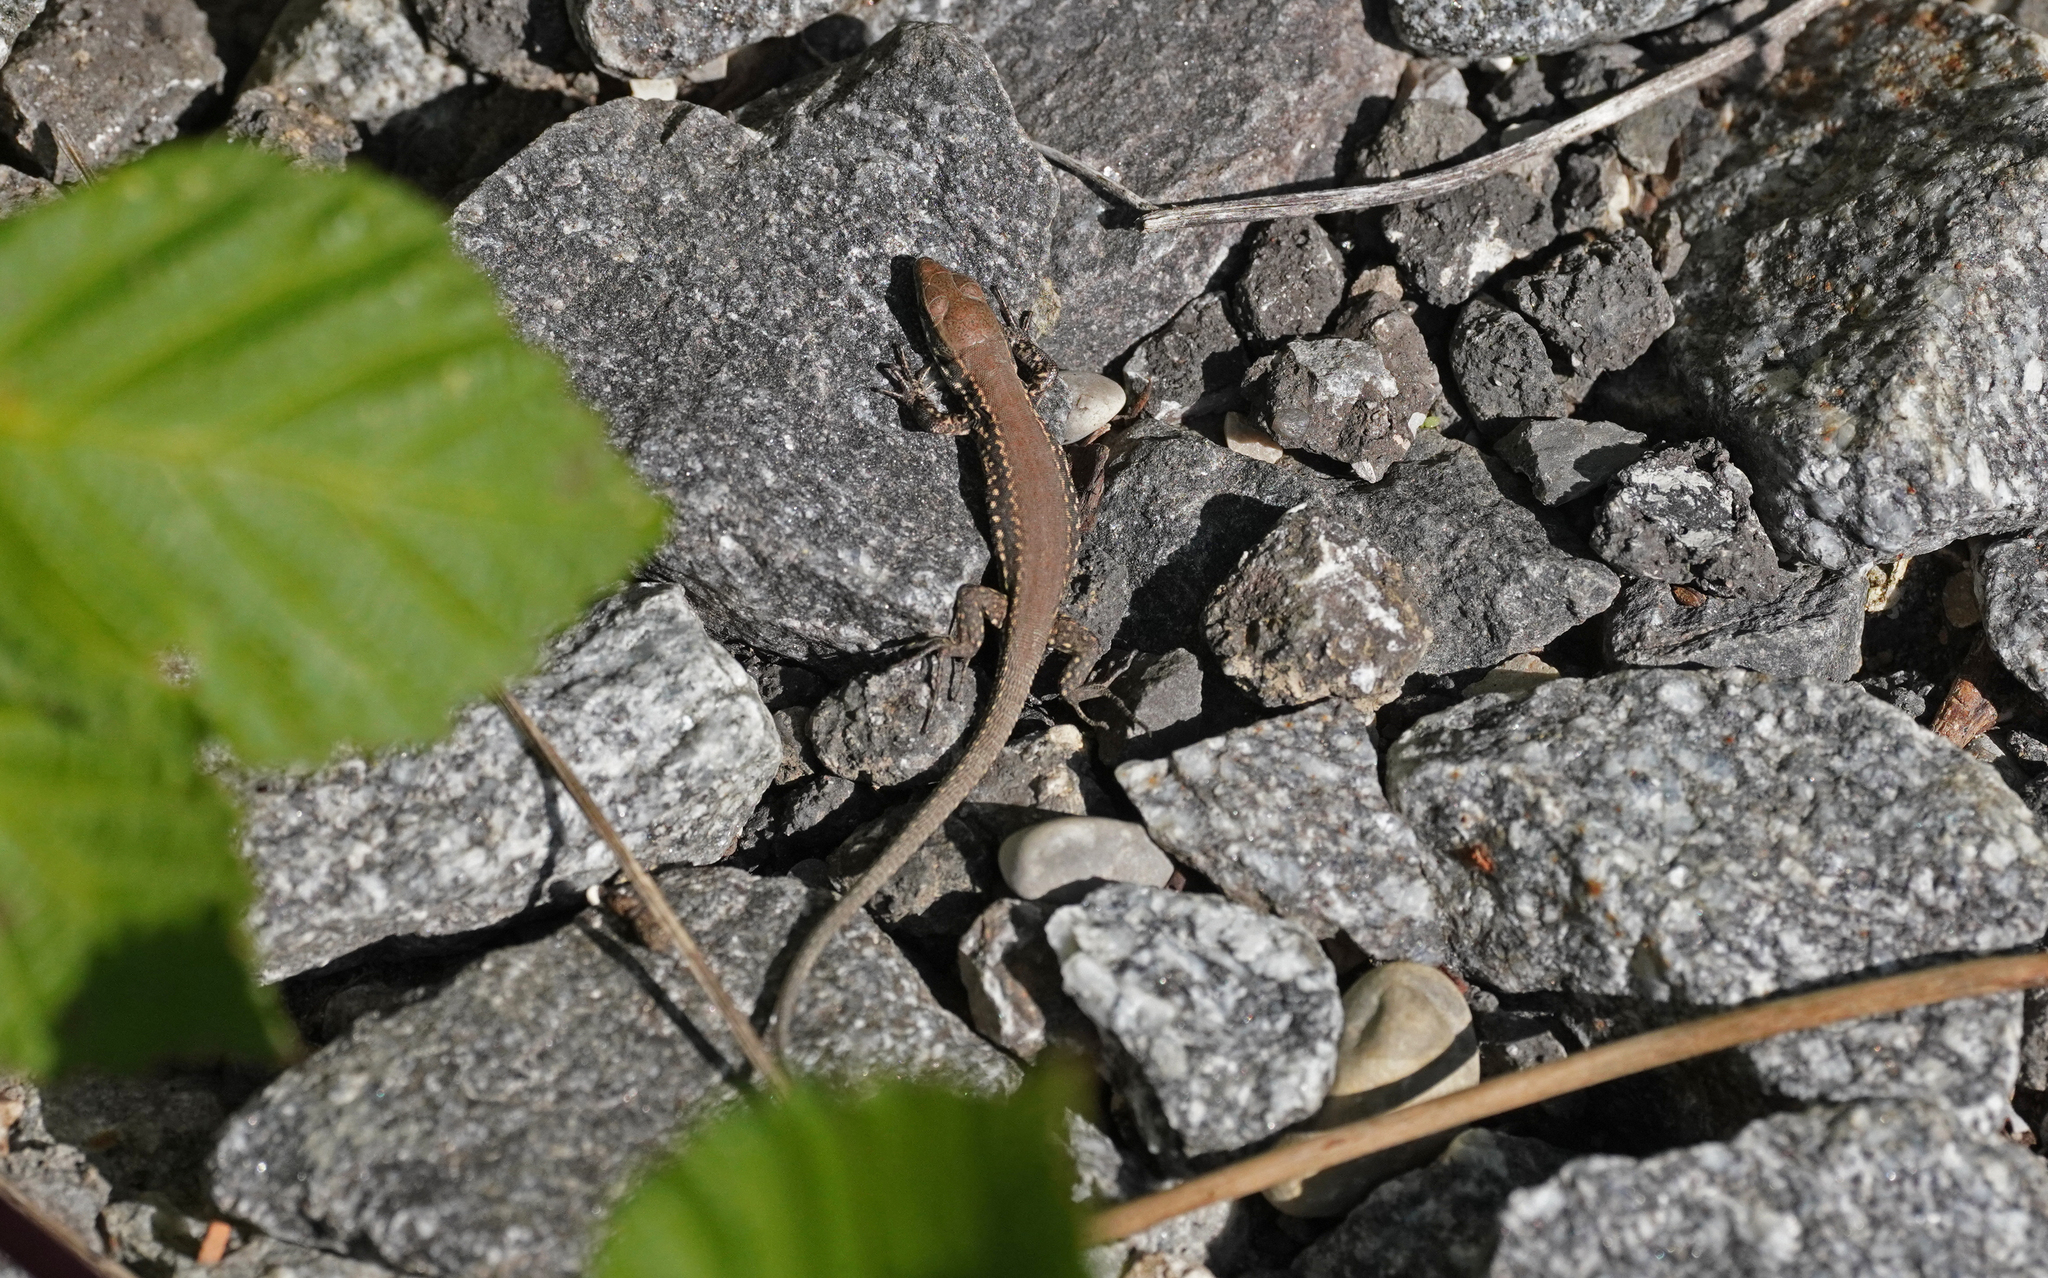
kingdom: Animalia
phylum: Chordata
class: Squamata
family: Lacertidae
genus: Podarcis
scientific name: Podarcis muralis
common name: Common wall lizard
